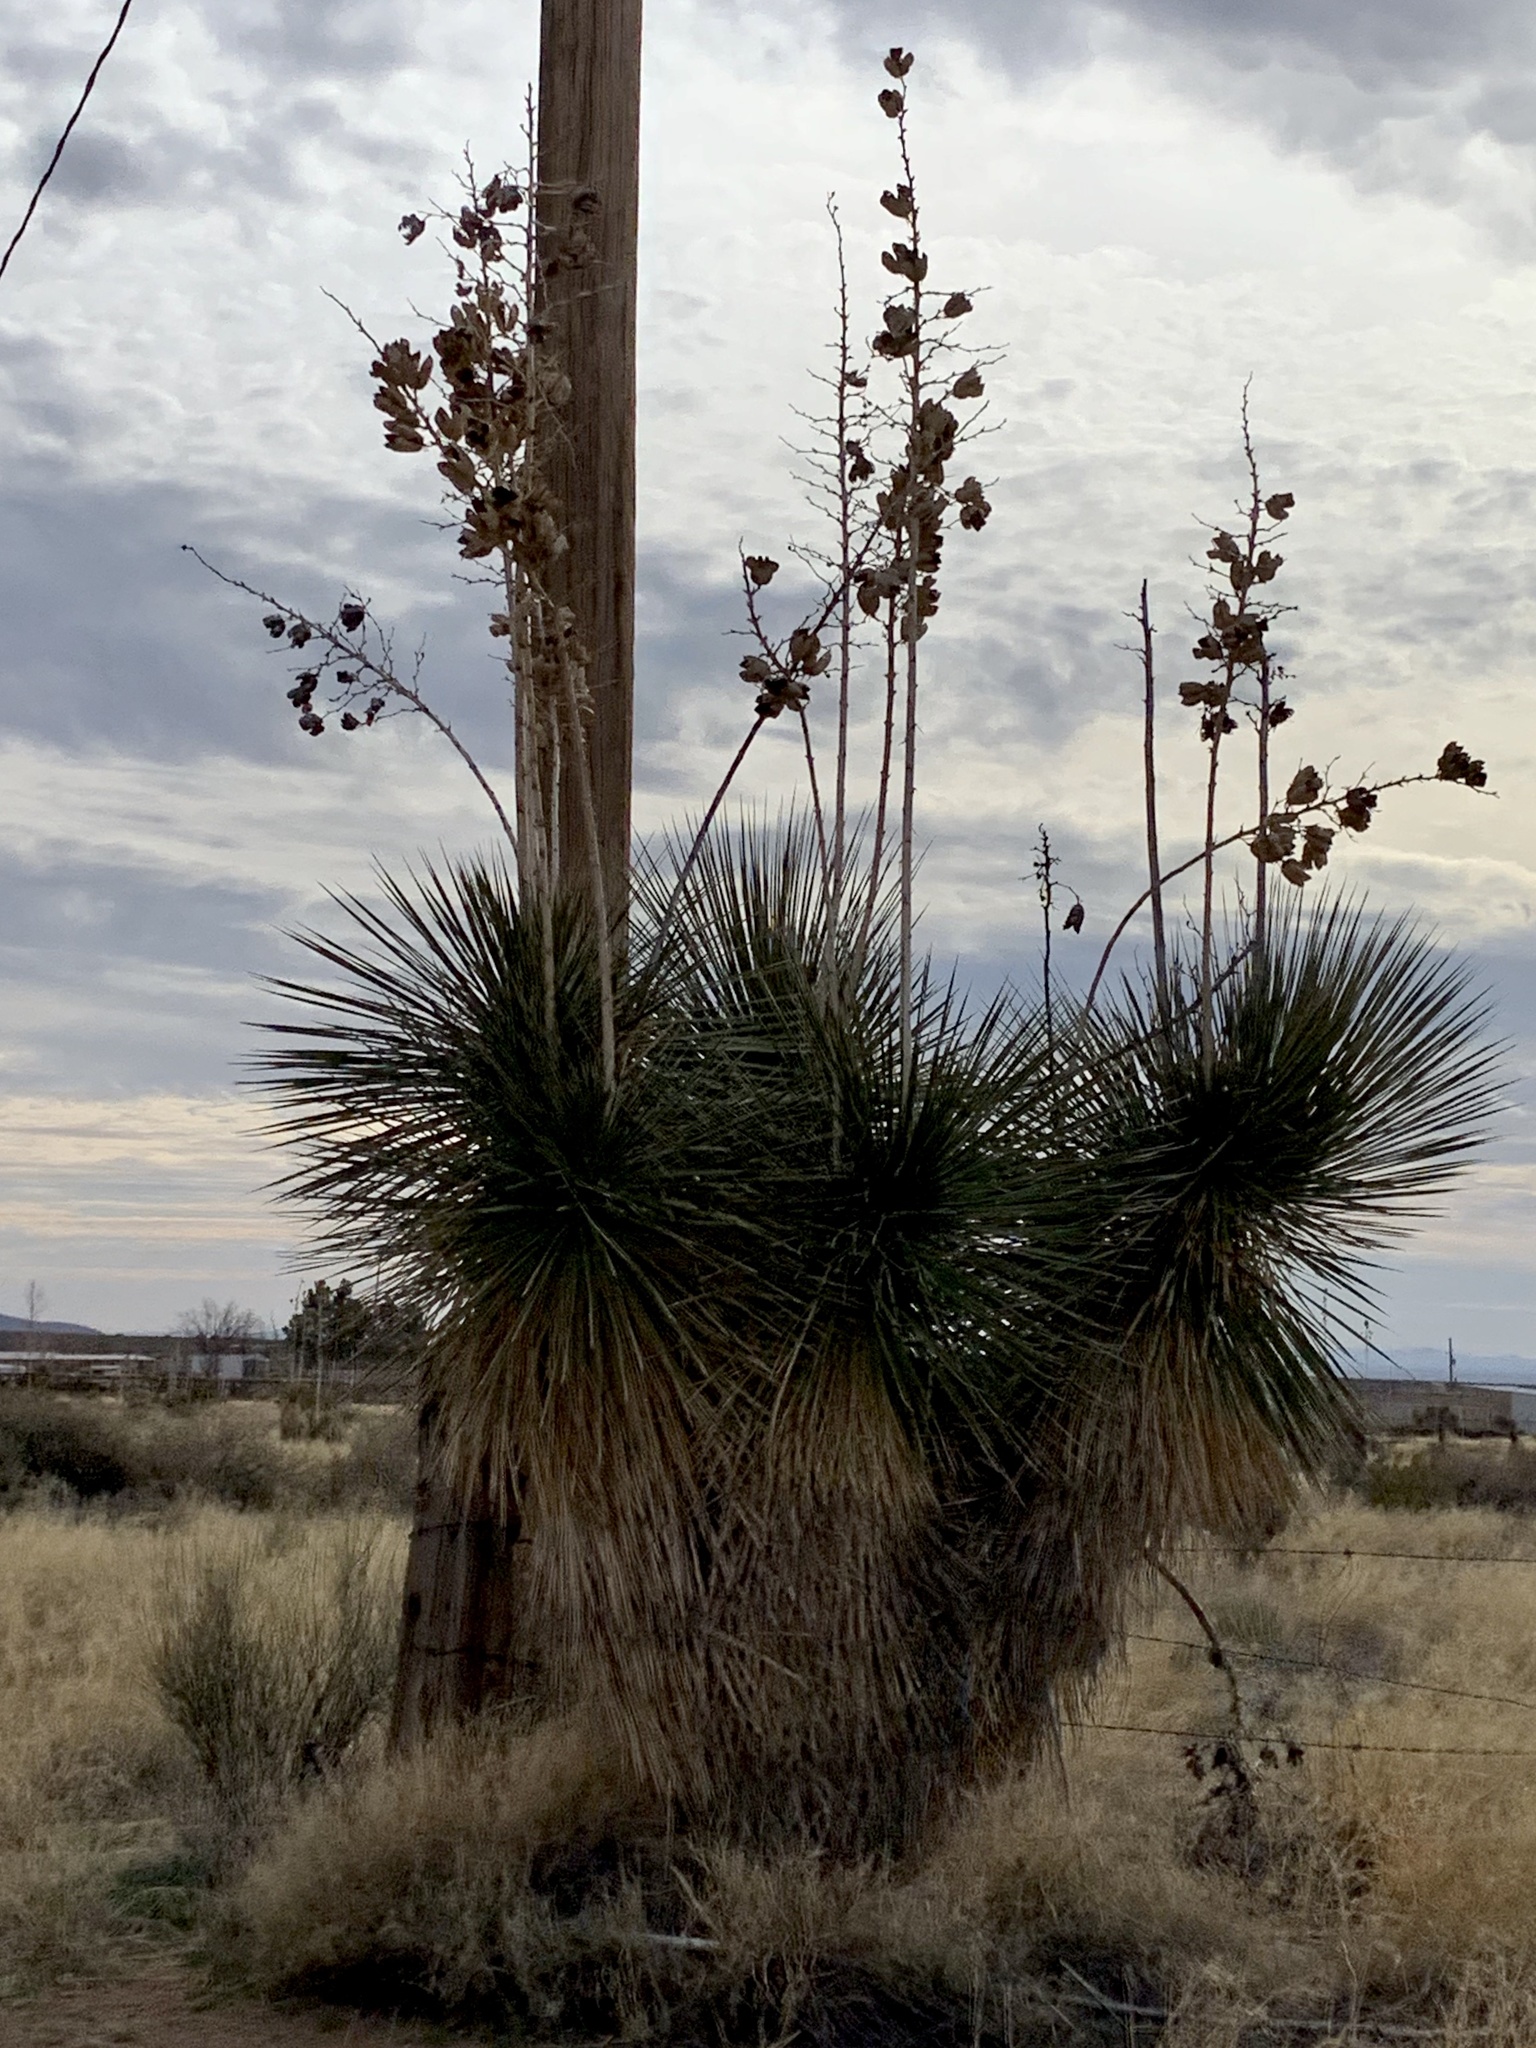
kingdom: Plantae
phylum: Tracheophyta
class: Liliopsida
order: Asparagales
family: Asparagaceae
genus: Yucca
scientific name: Yucca elata
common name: Palmella
